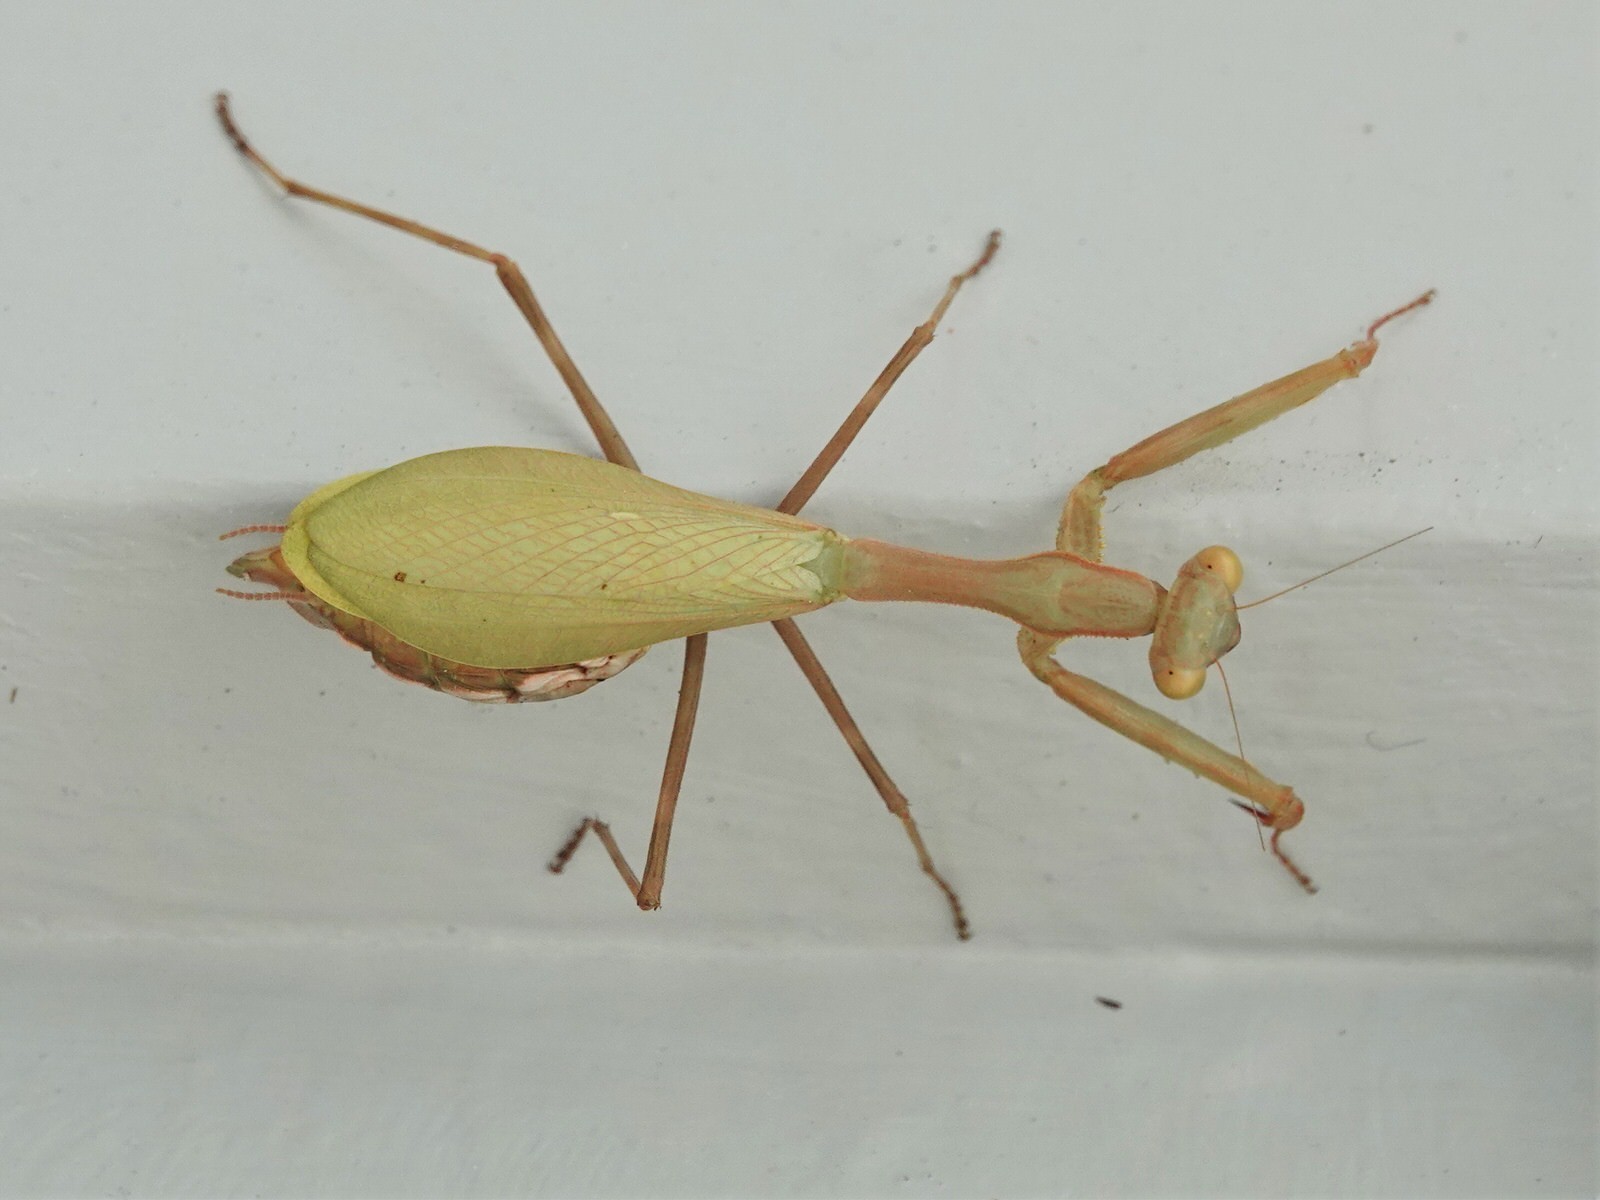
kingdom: Animalia
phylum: Arthropoda
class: Insecta
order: Mantodea
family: Miomantidae
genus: Miomantis
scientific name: Miomantis caffra
